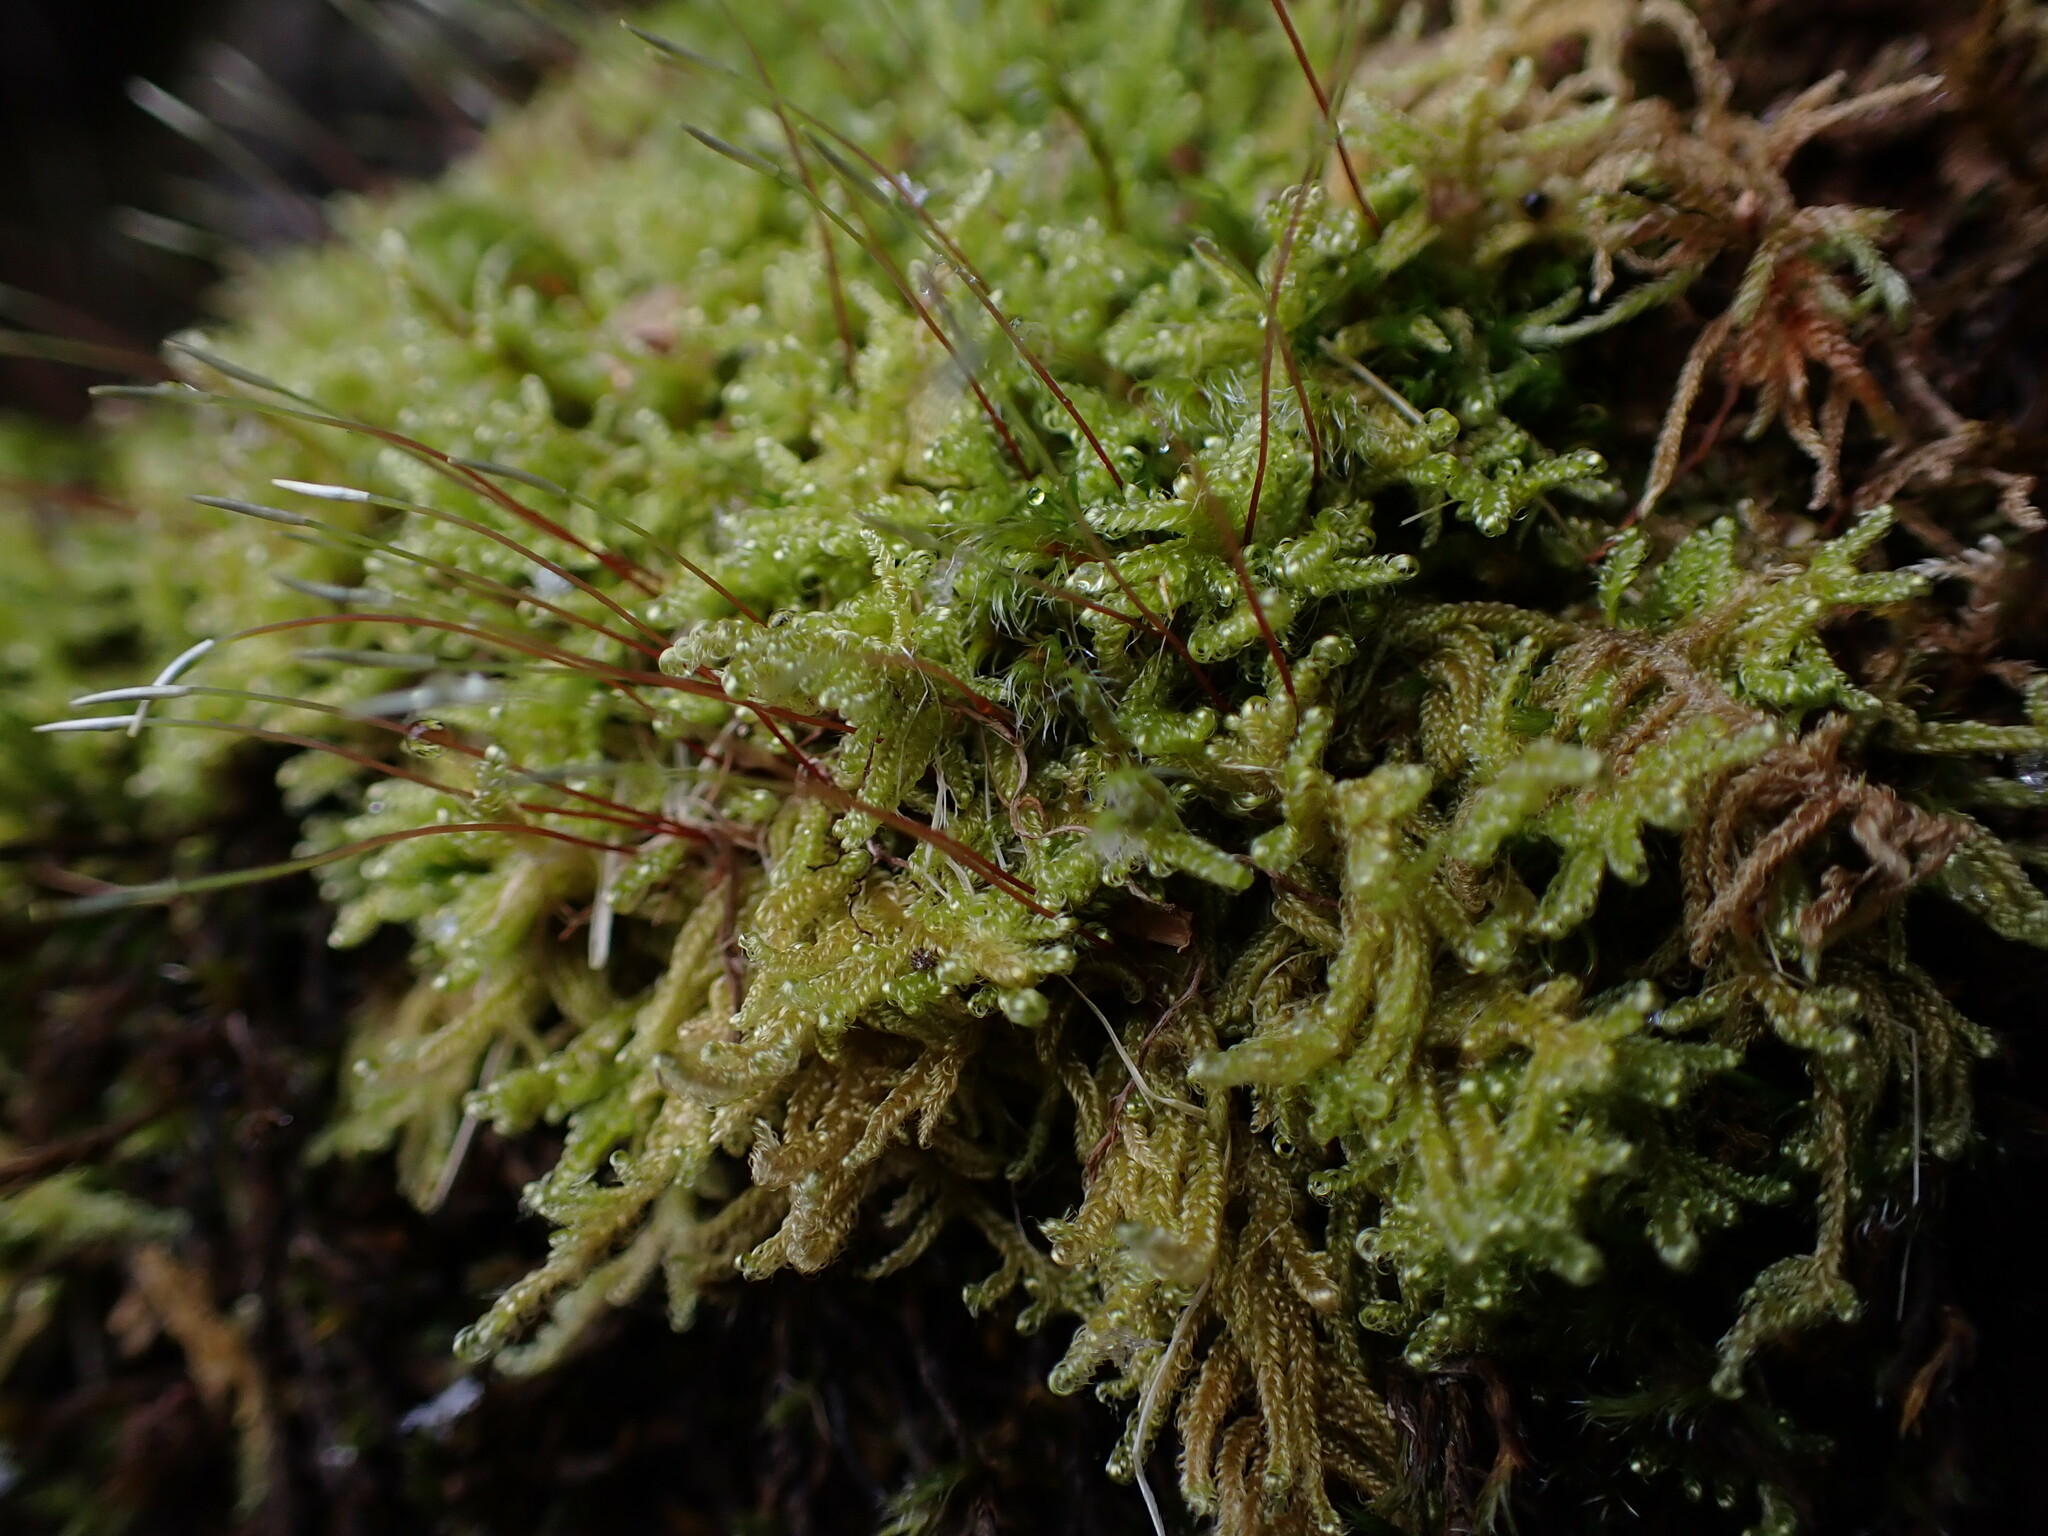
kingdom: Plantae
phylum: Bryophyta
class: Bryopsida
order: Hypnales
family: Stereodontaceae
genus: Stereodon
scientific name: Stereodon subimponens
